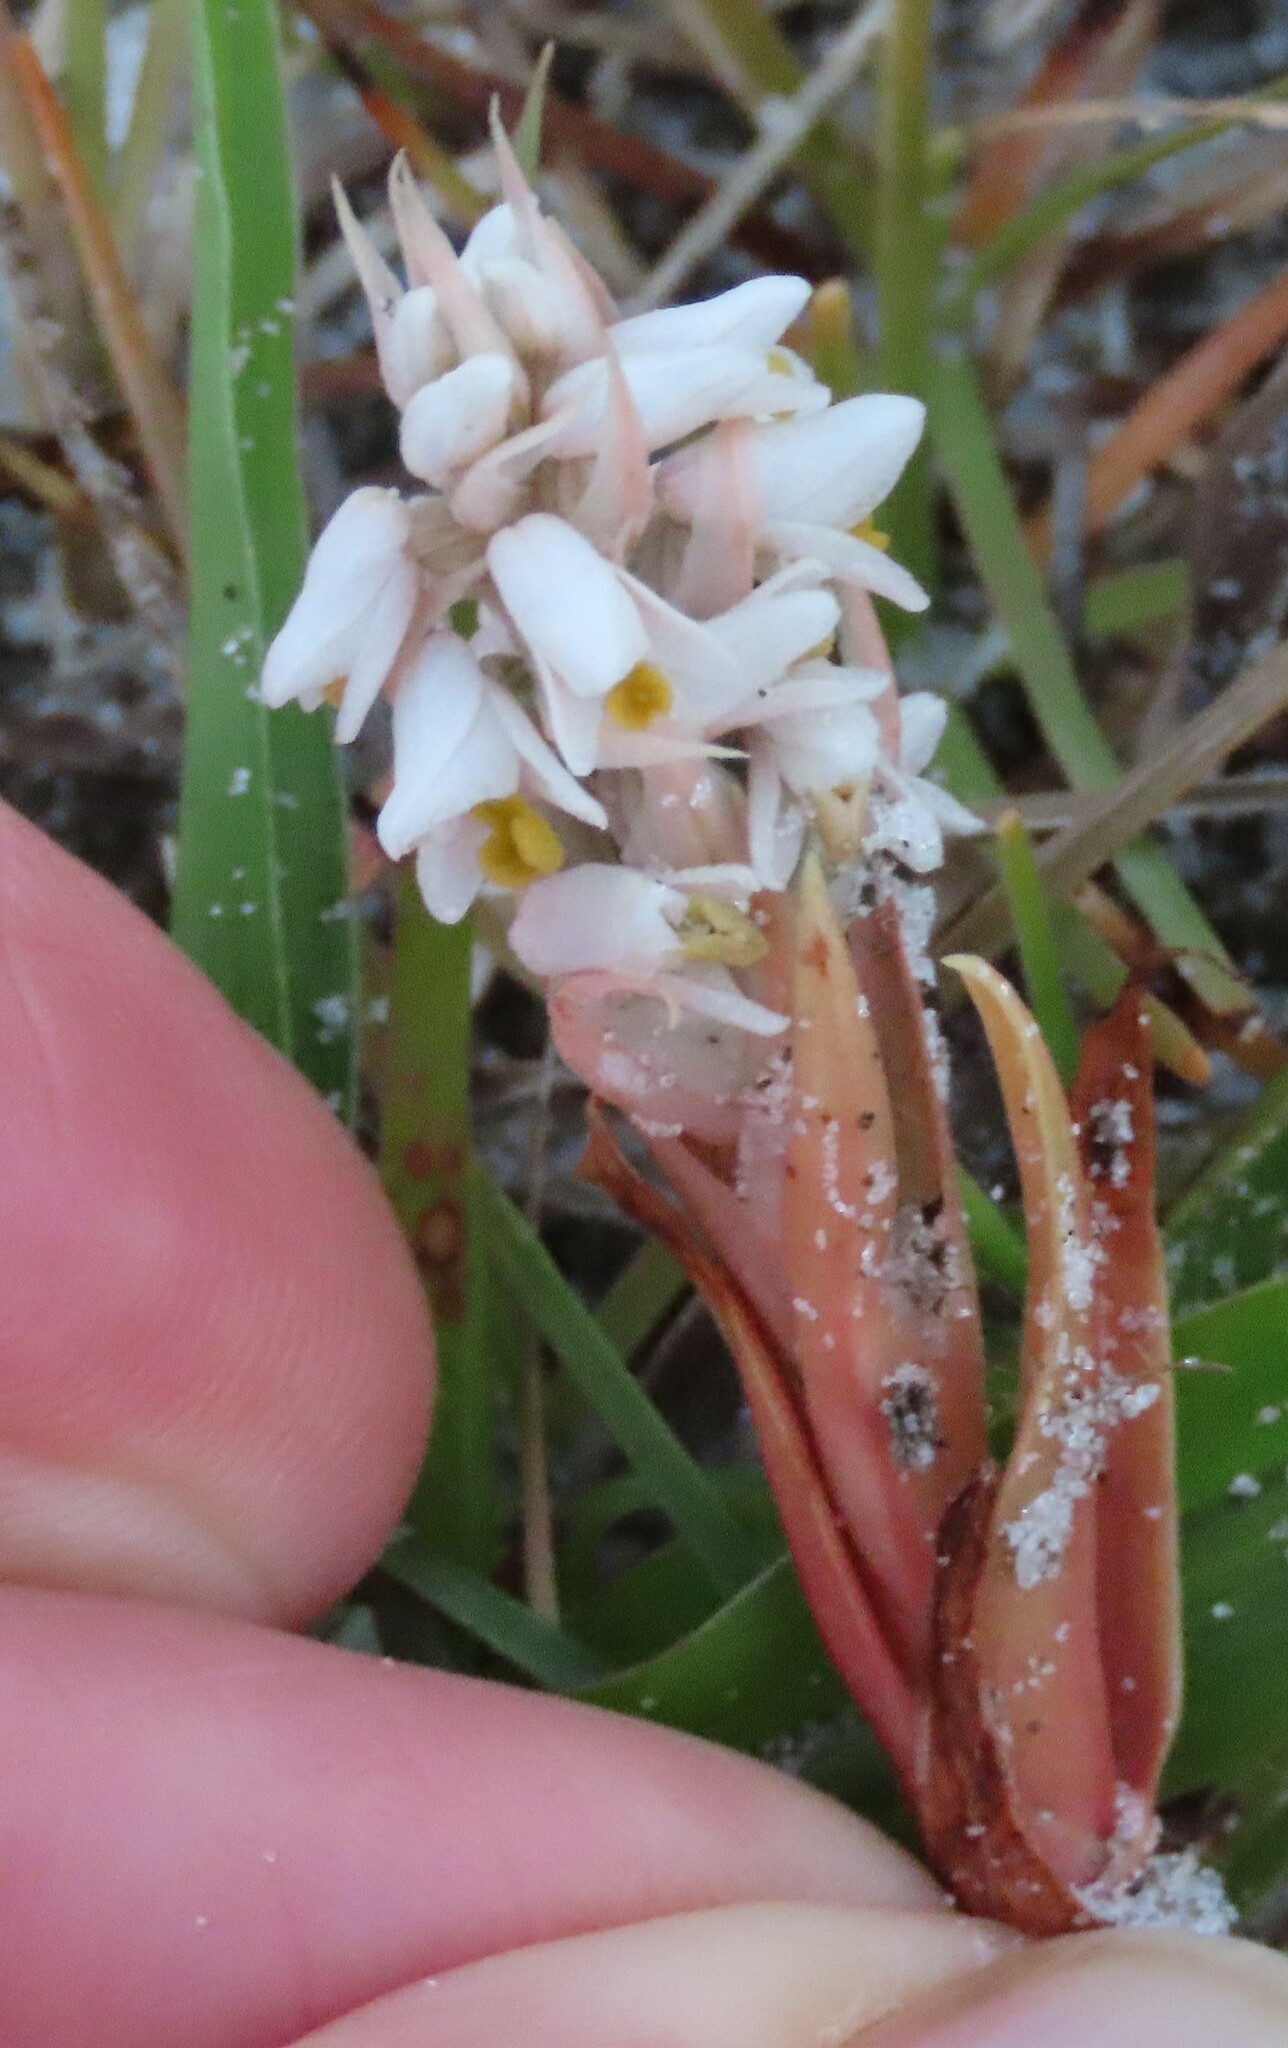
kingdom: Plantae
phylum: Tracheophyta
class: Liliopsida
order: Asparagales
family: Orchidaceae
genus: Zeuxine
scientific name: Zeuxine strateumatica
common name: Soldier's orchid
